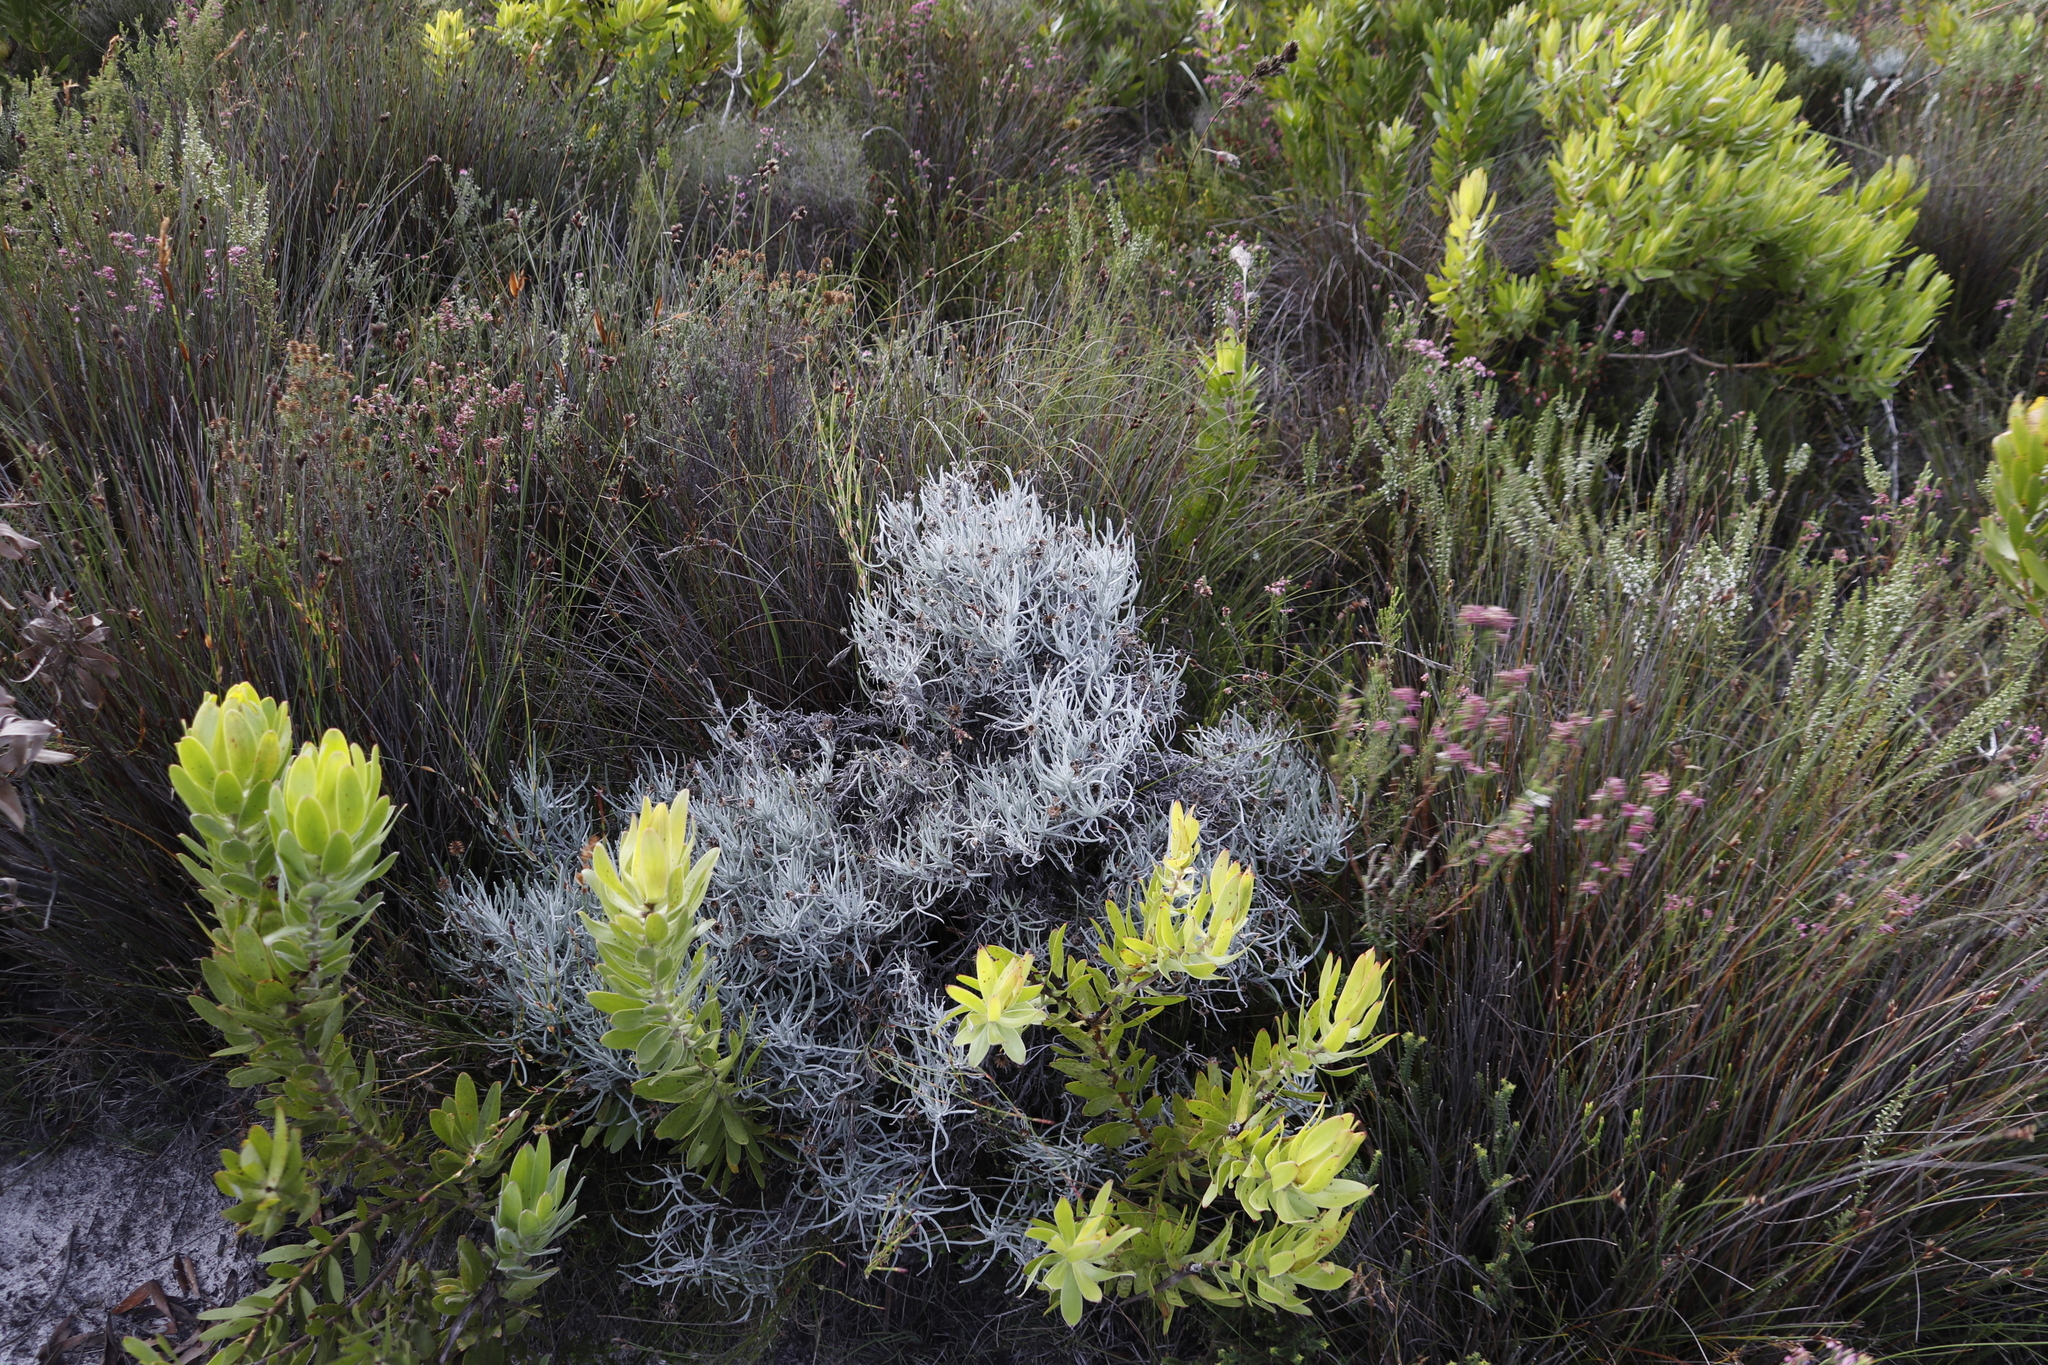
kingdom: Plantae
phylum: Tracheophyta
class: Magnoliopsida
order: Asterales
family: Asteraceae
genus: Syncarpha
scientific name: Syncarpha gnaphaloides
